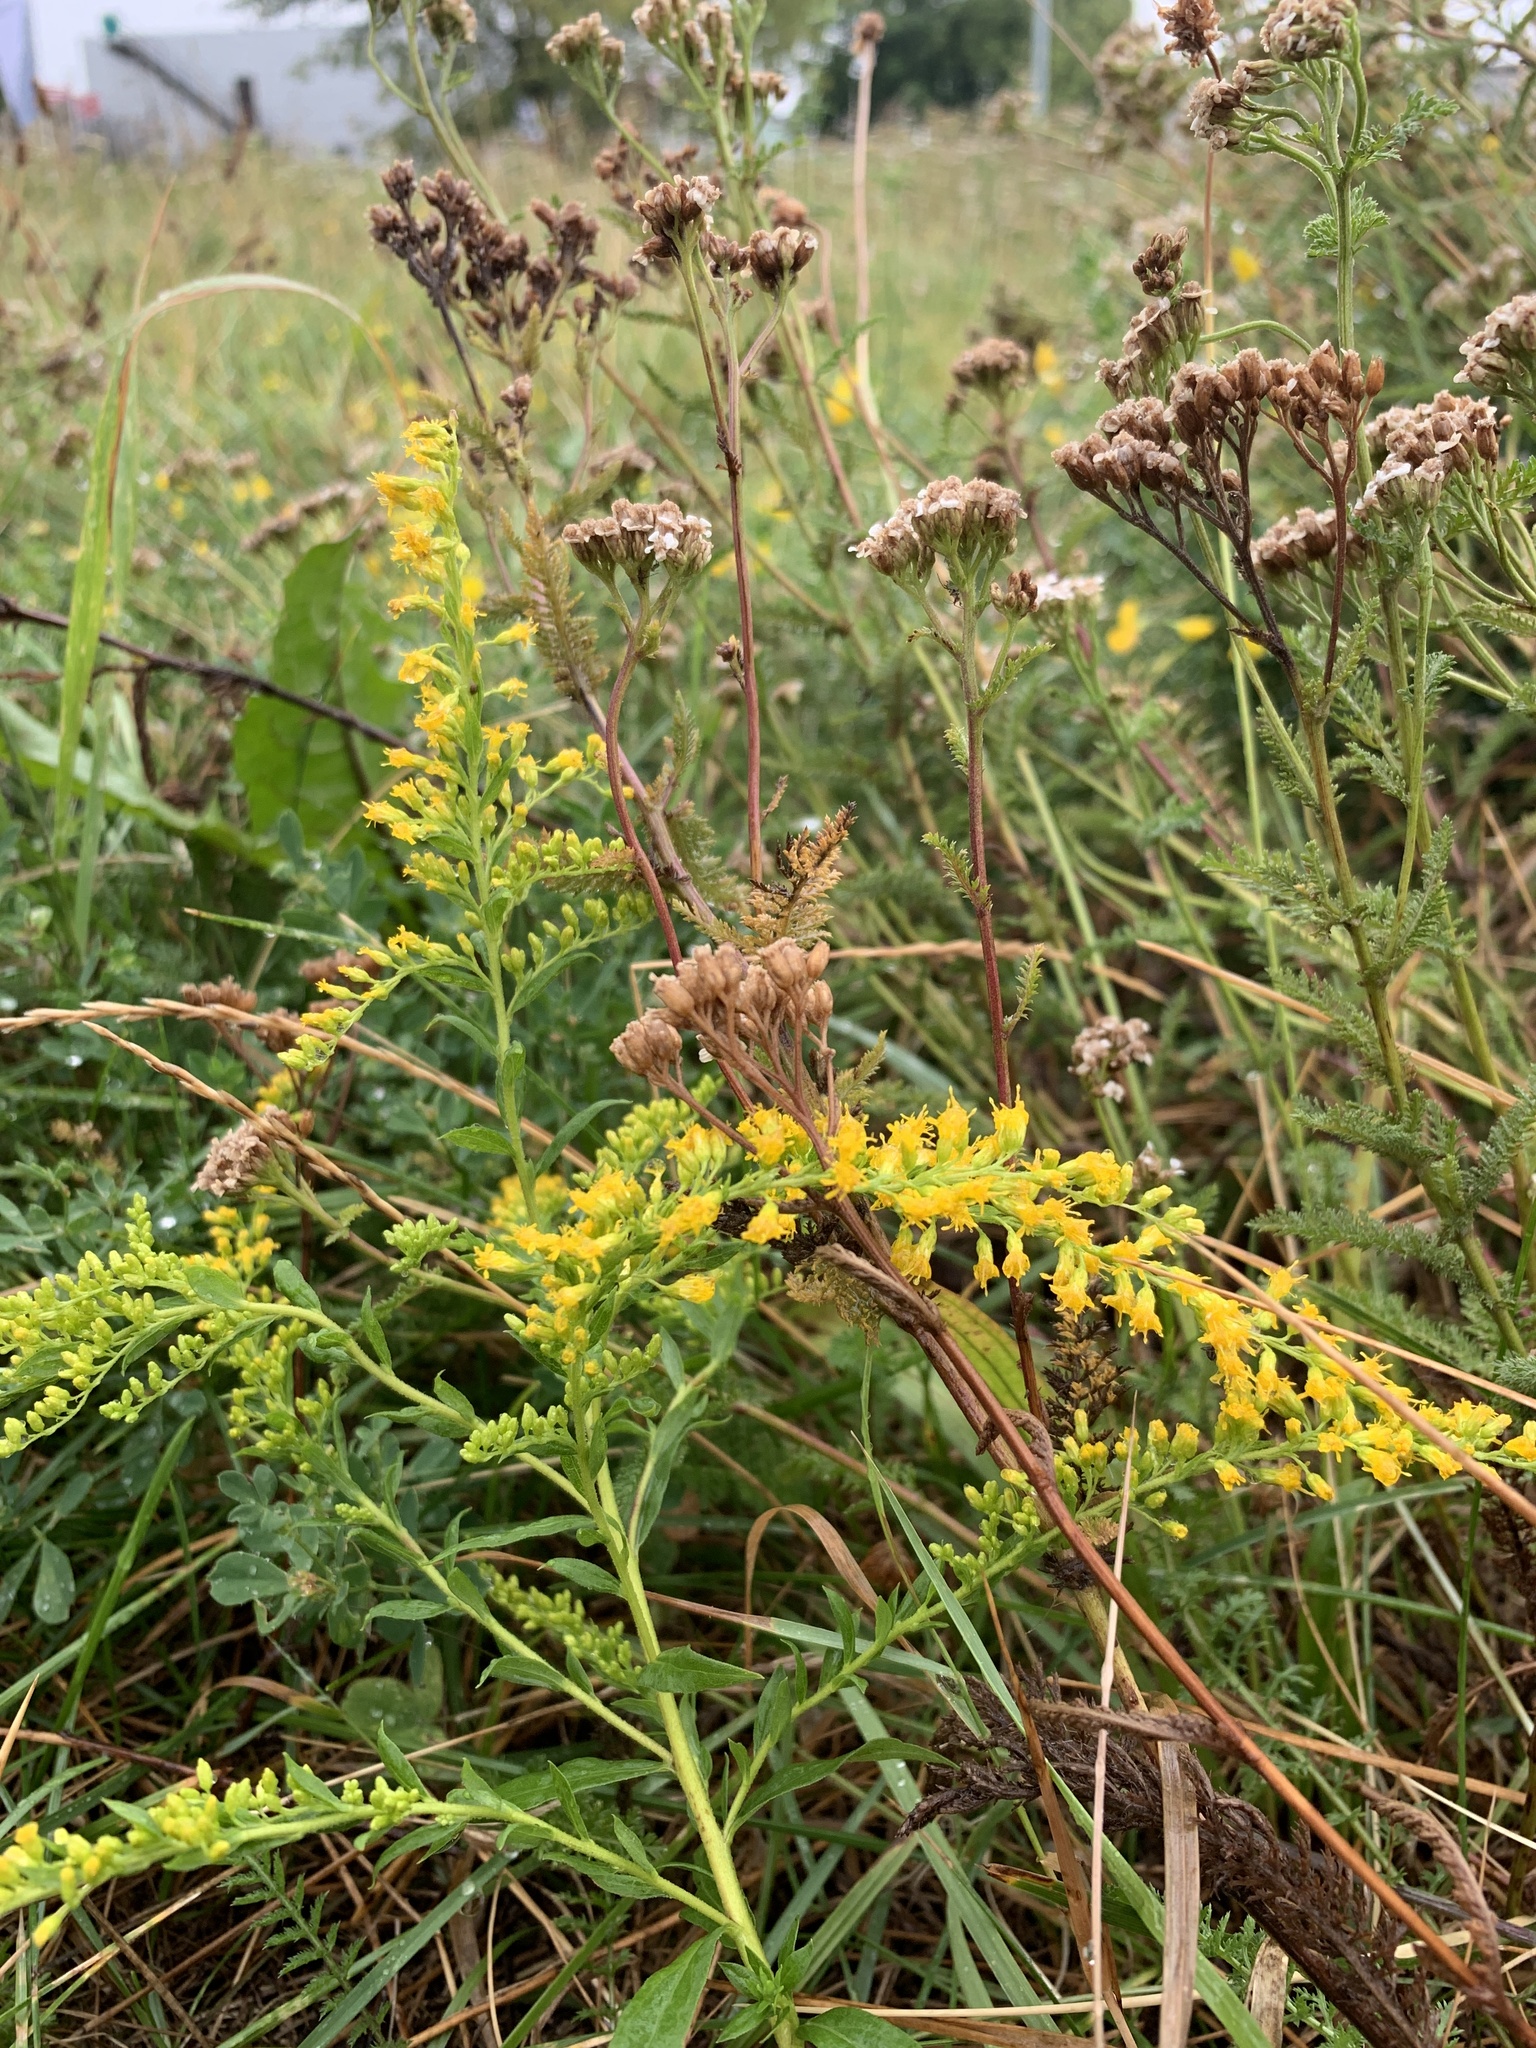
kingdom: Plantae
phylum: Tracheophyta
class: Magnoliopsida
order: Asterales
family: Asteraceae
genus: Solidago
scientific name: Solidago canadensis
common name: Canada goldenrod
